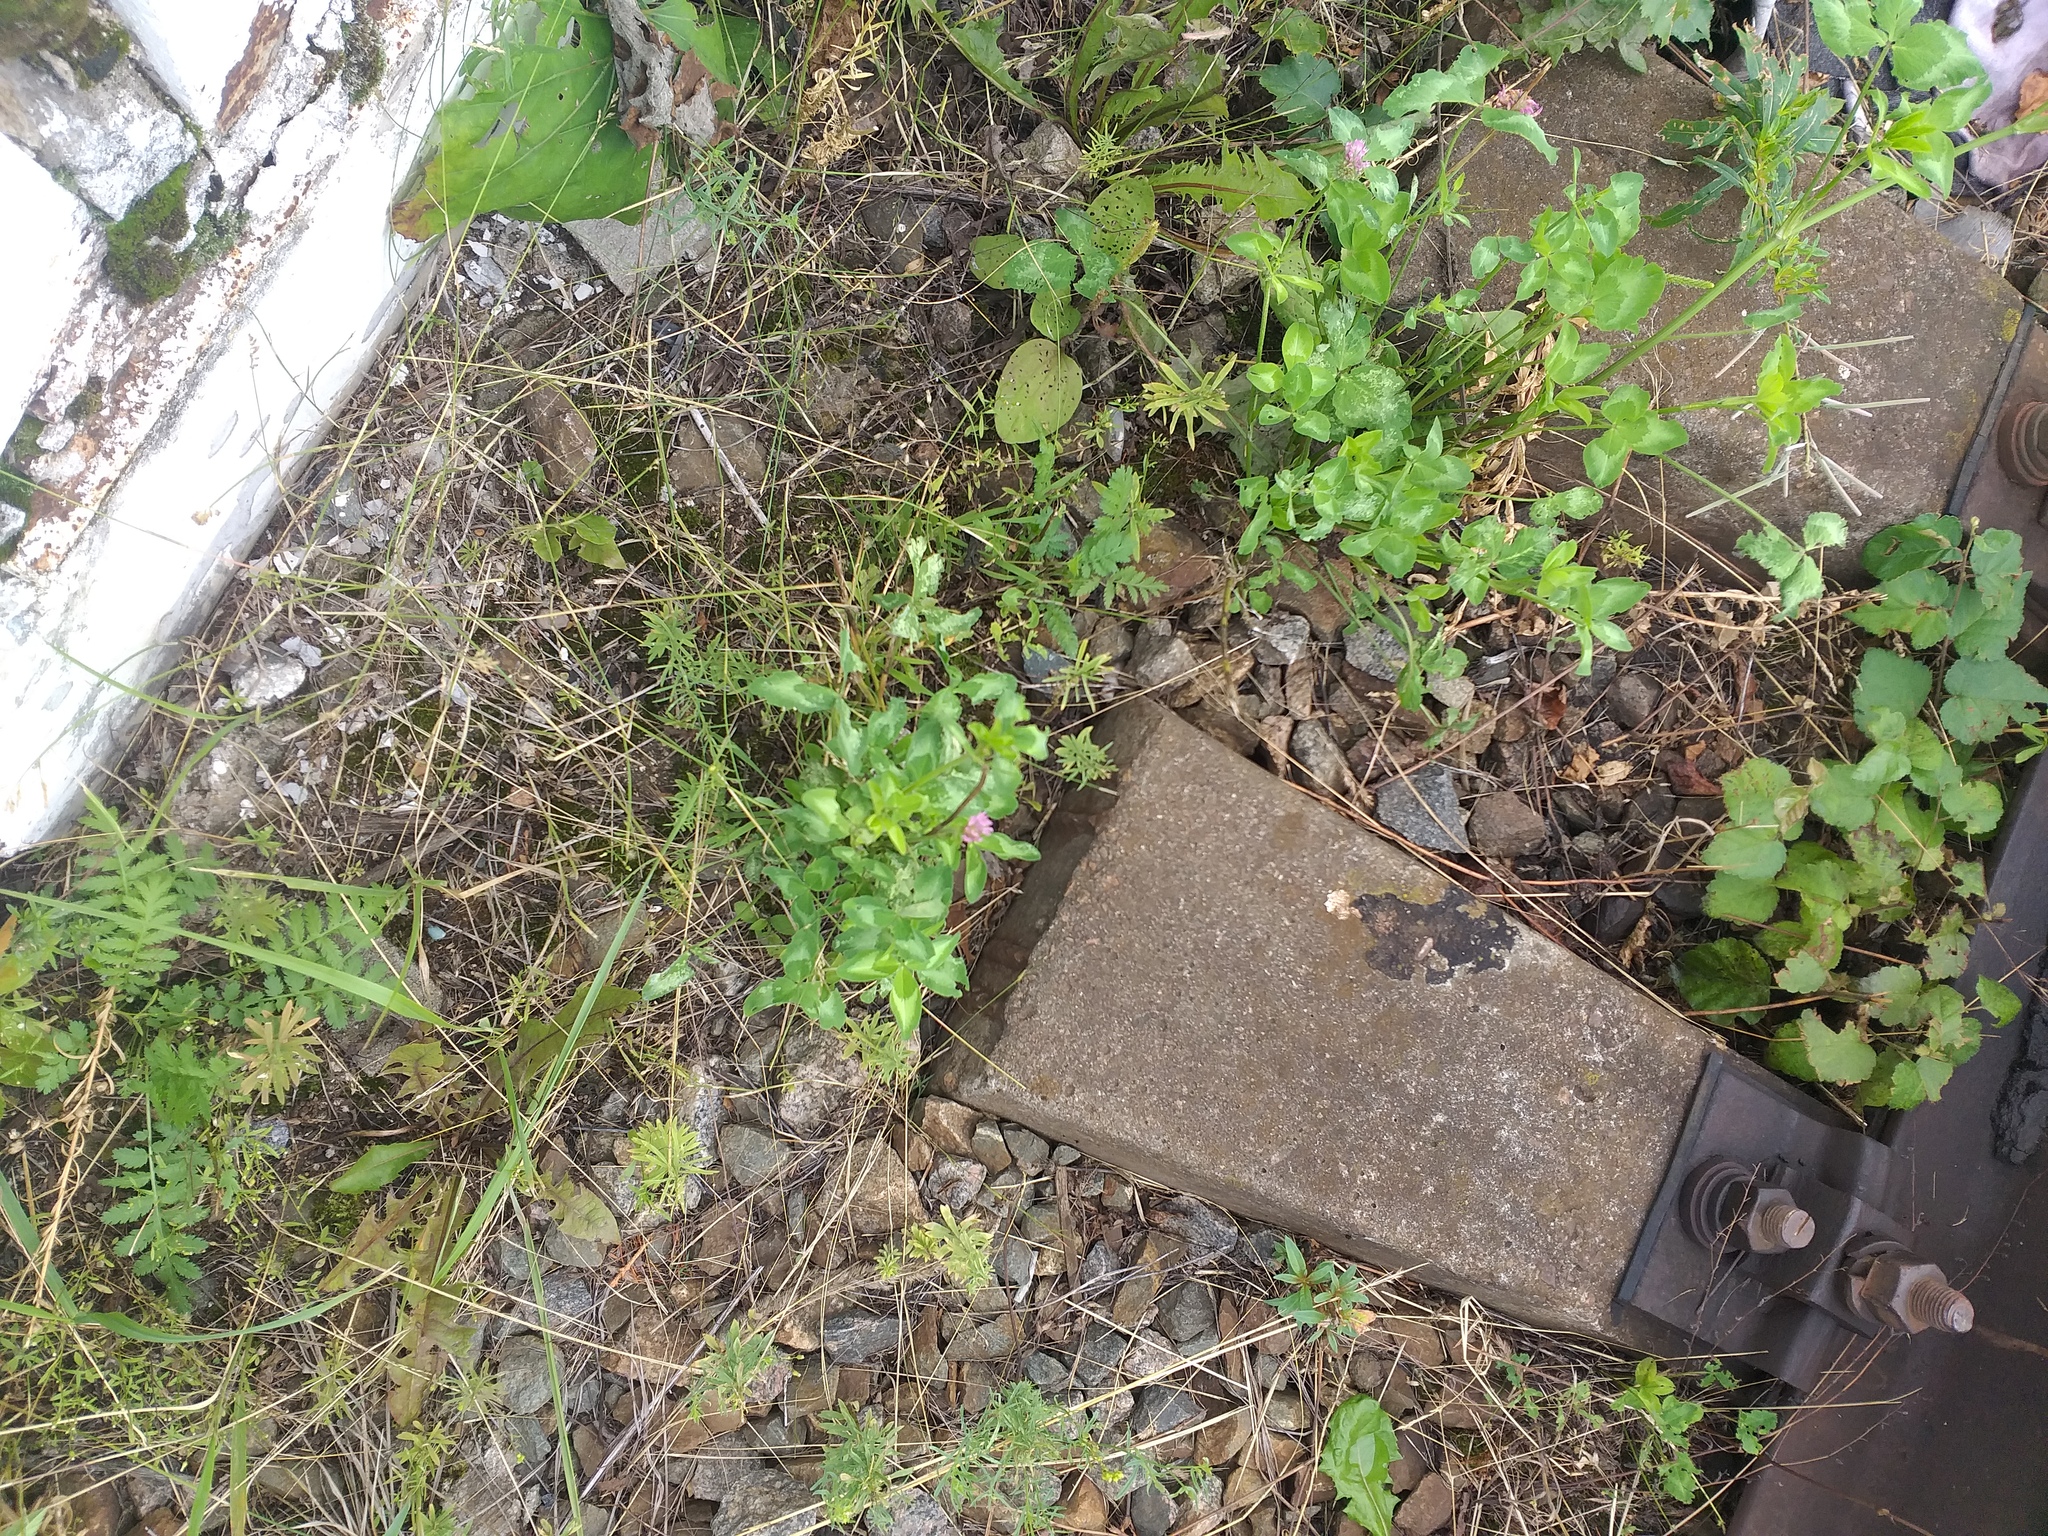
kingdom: Plantae
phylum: Tracheophyta
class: Magnoliopsida
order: Fabales
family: Fabaceae
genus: Trifolium
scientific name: Trifolium pratense
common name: Red clover
